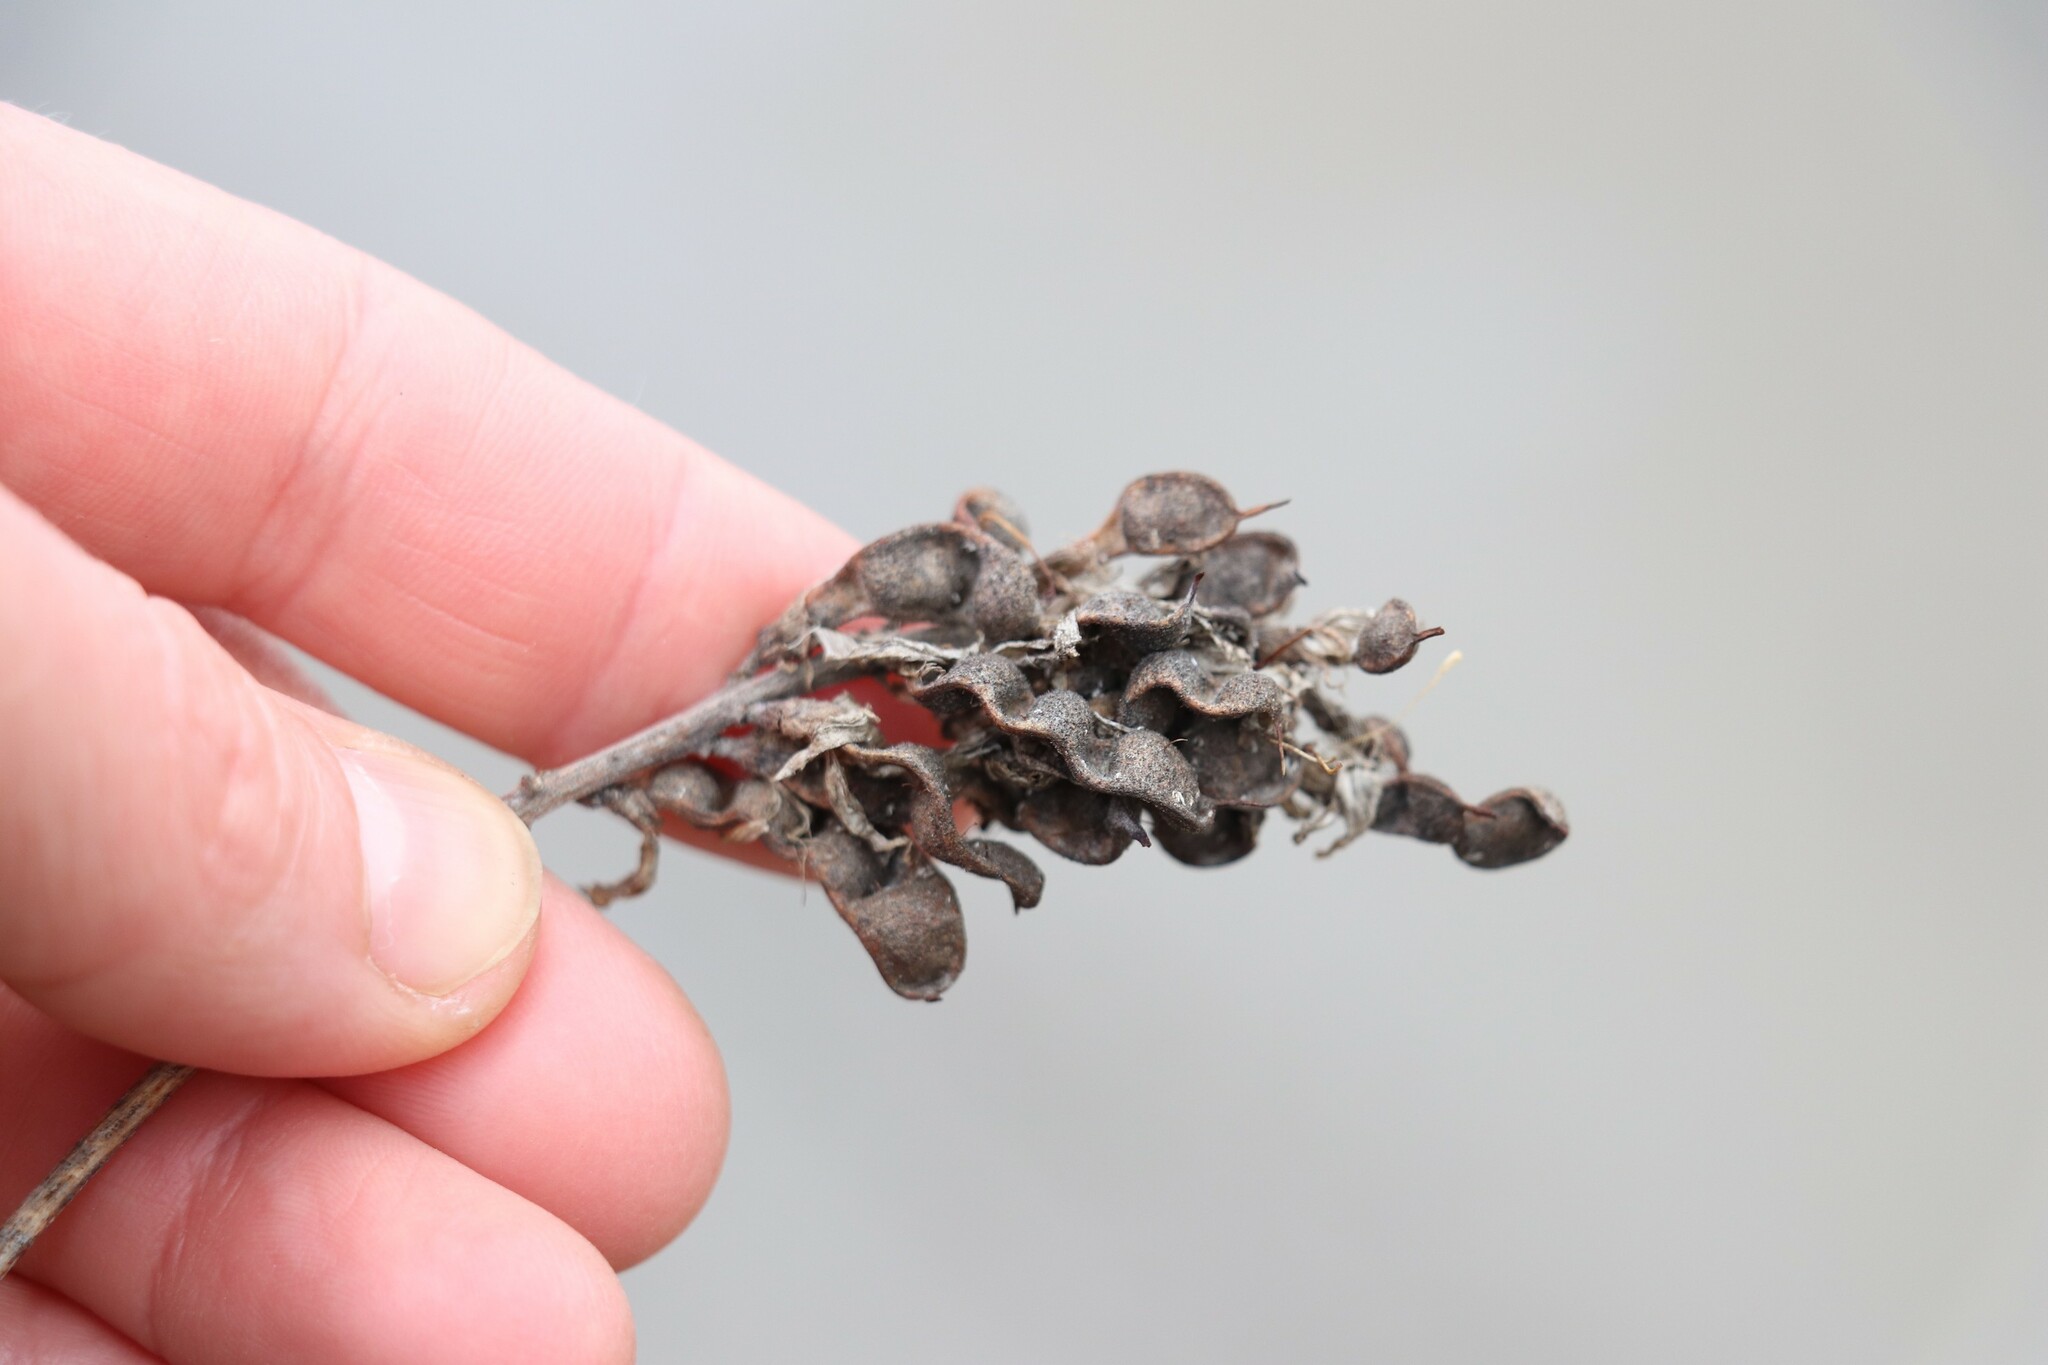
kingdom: Plantae
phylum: Tracheophyta
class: Magnoliopsida
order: Fabales
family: Fabaceae
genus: Glycyrrhiza
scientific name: Glycyrrhiza uralensis
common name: Chinese licorice
